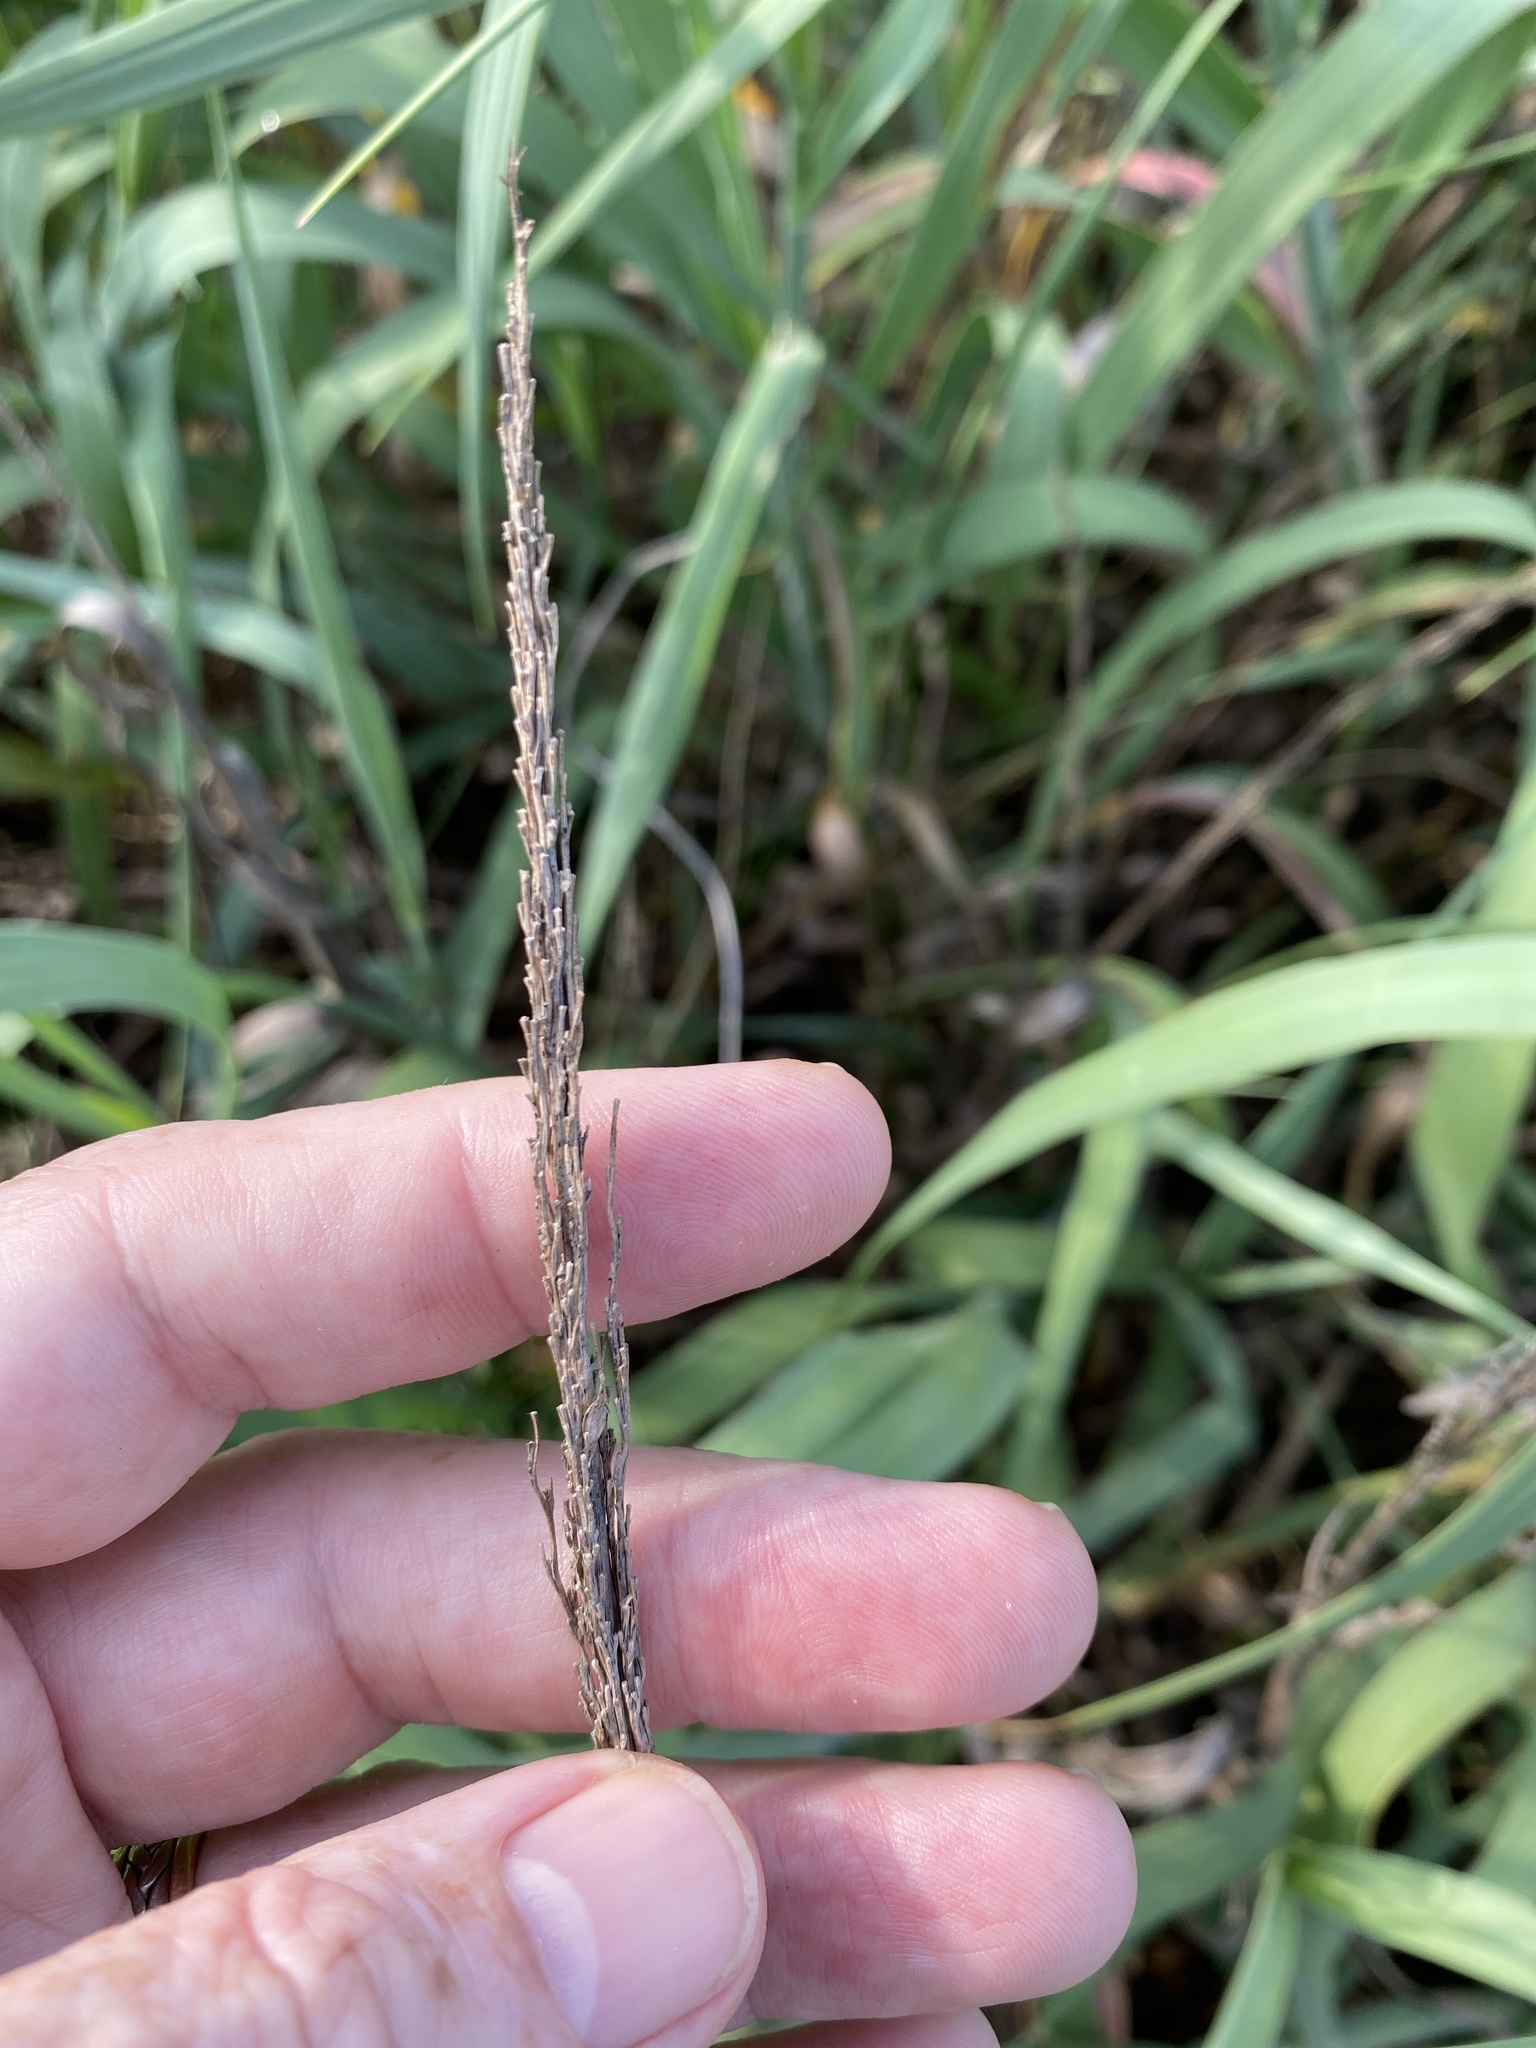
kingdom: Plantae
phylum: Tracheophyta
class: Liliopsida
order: Poales
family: Poaceae
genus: Panicum
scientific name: Panicum amarum
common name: Bitter panicum
